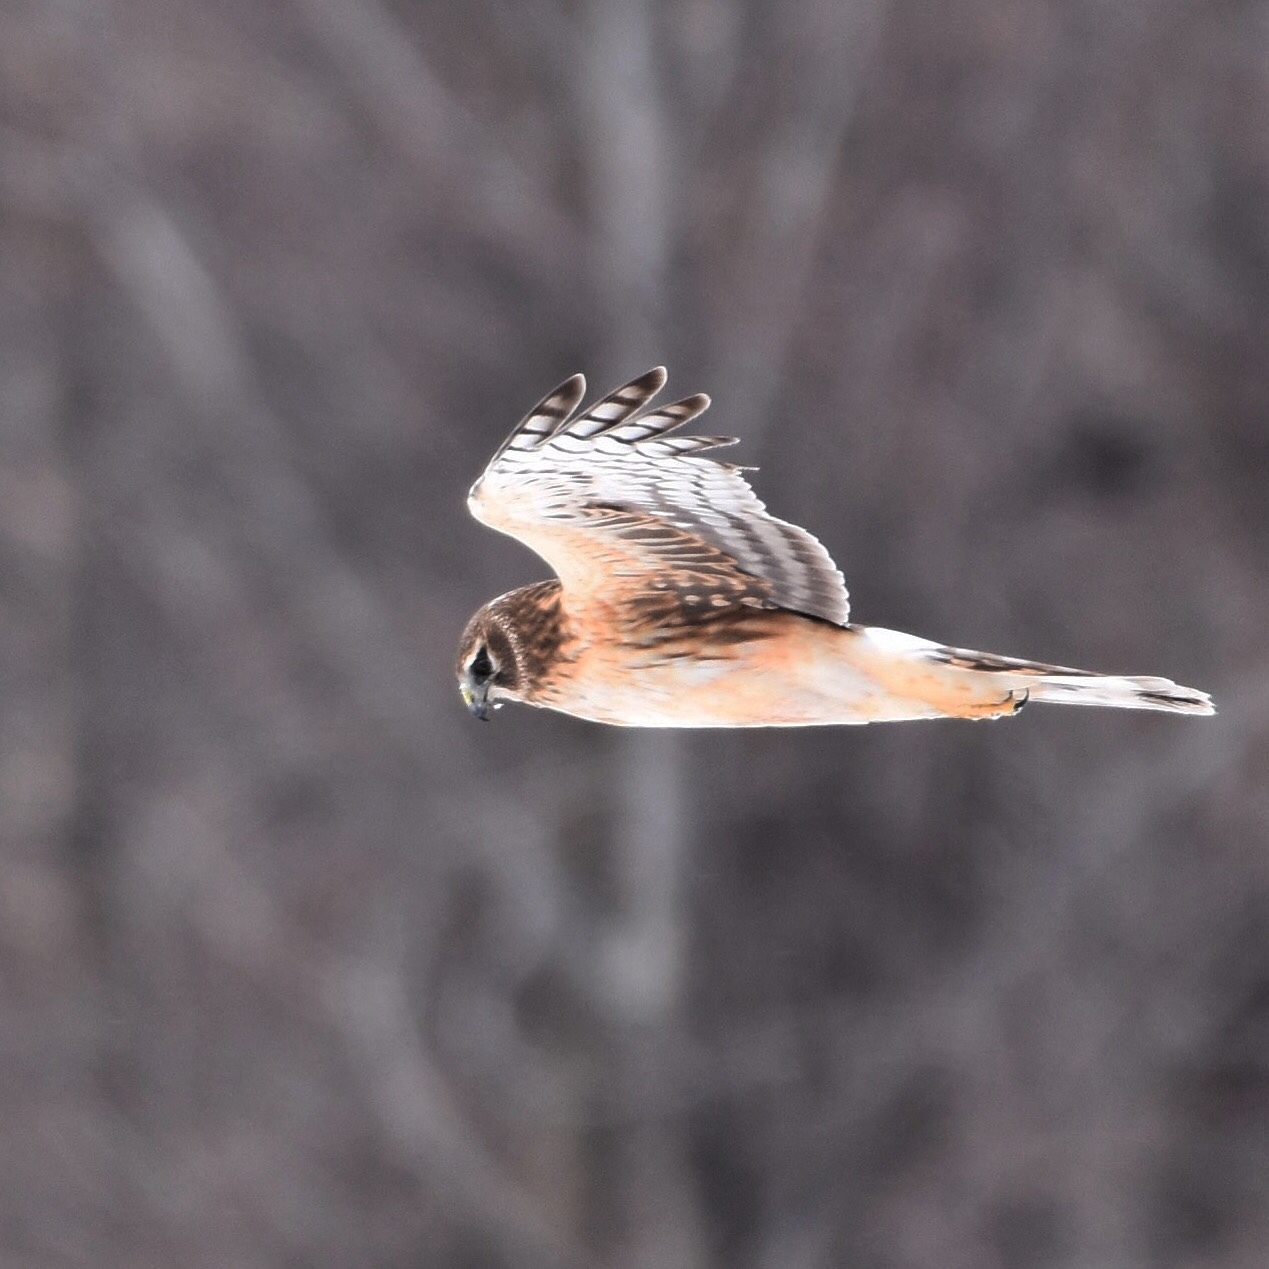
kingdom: Animalia
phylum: Chordata
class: Aves
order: Accipitriformes
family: Accipitridae
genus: Circus
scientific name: Circus cyaneus
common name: Hen harrier
